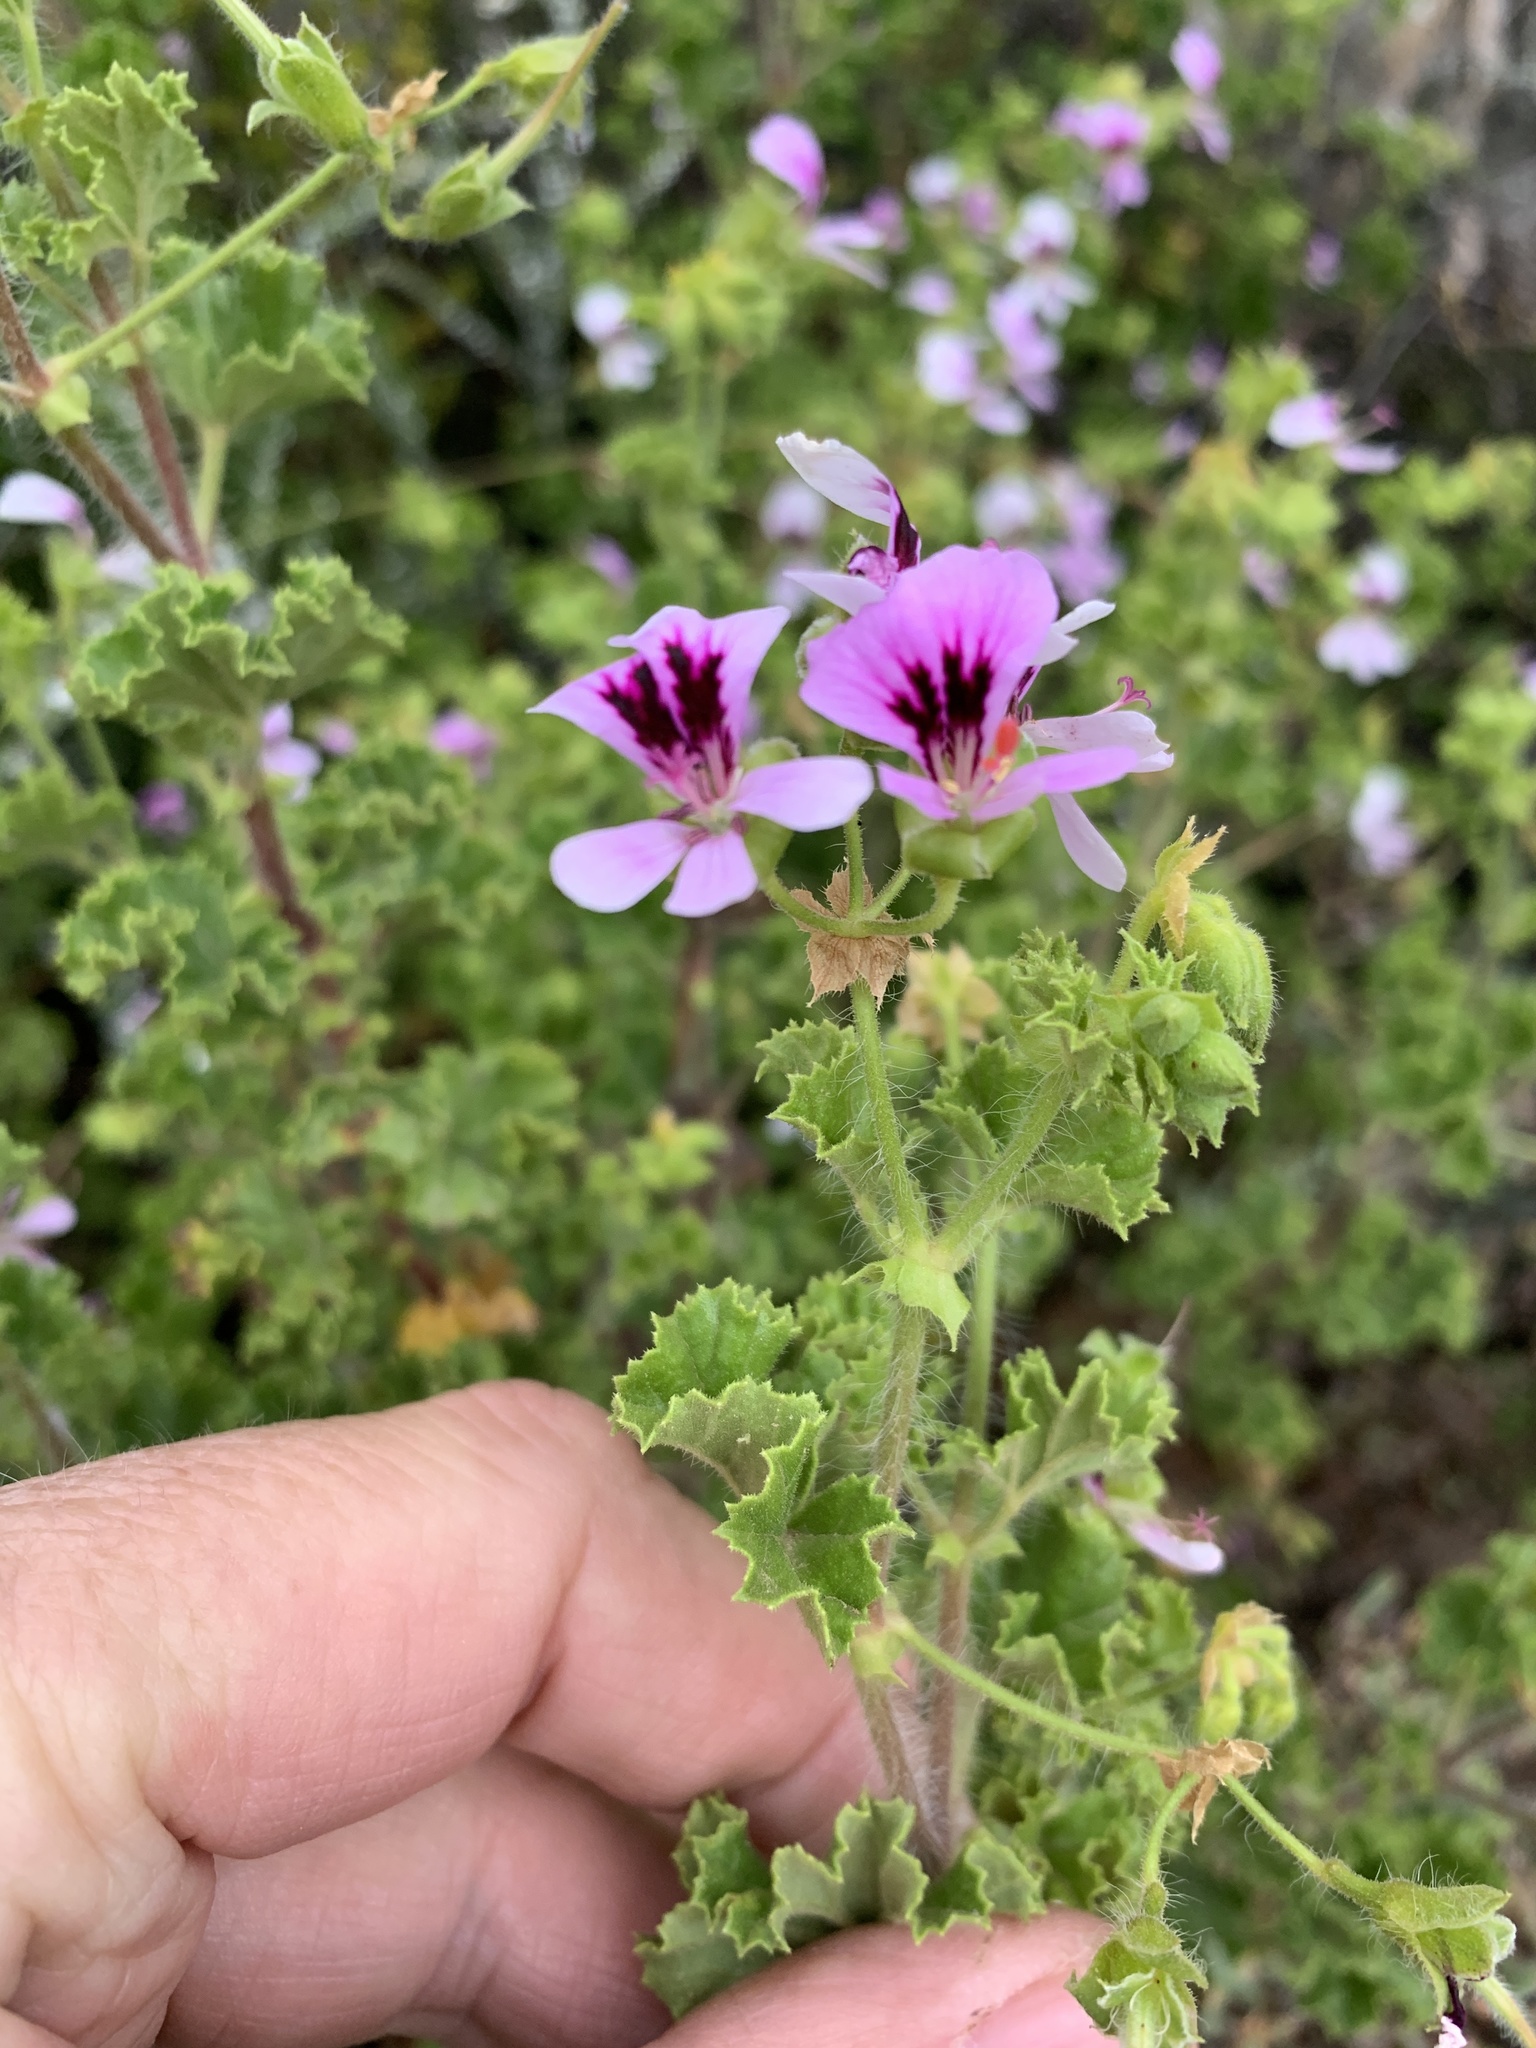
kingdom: Plantae
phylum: Tracheophyta
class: Magnoliopsida
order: Geraniales
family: Geraniaceae
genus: Pelargonium
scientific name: Pelargonium englerianum
